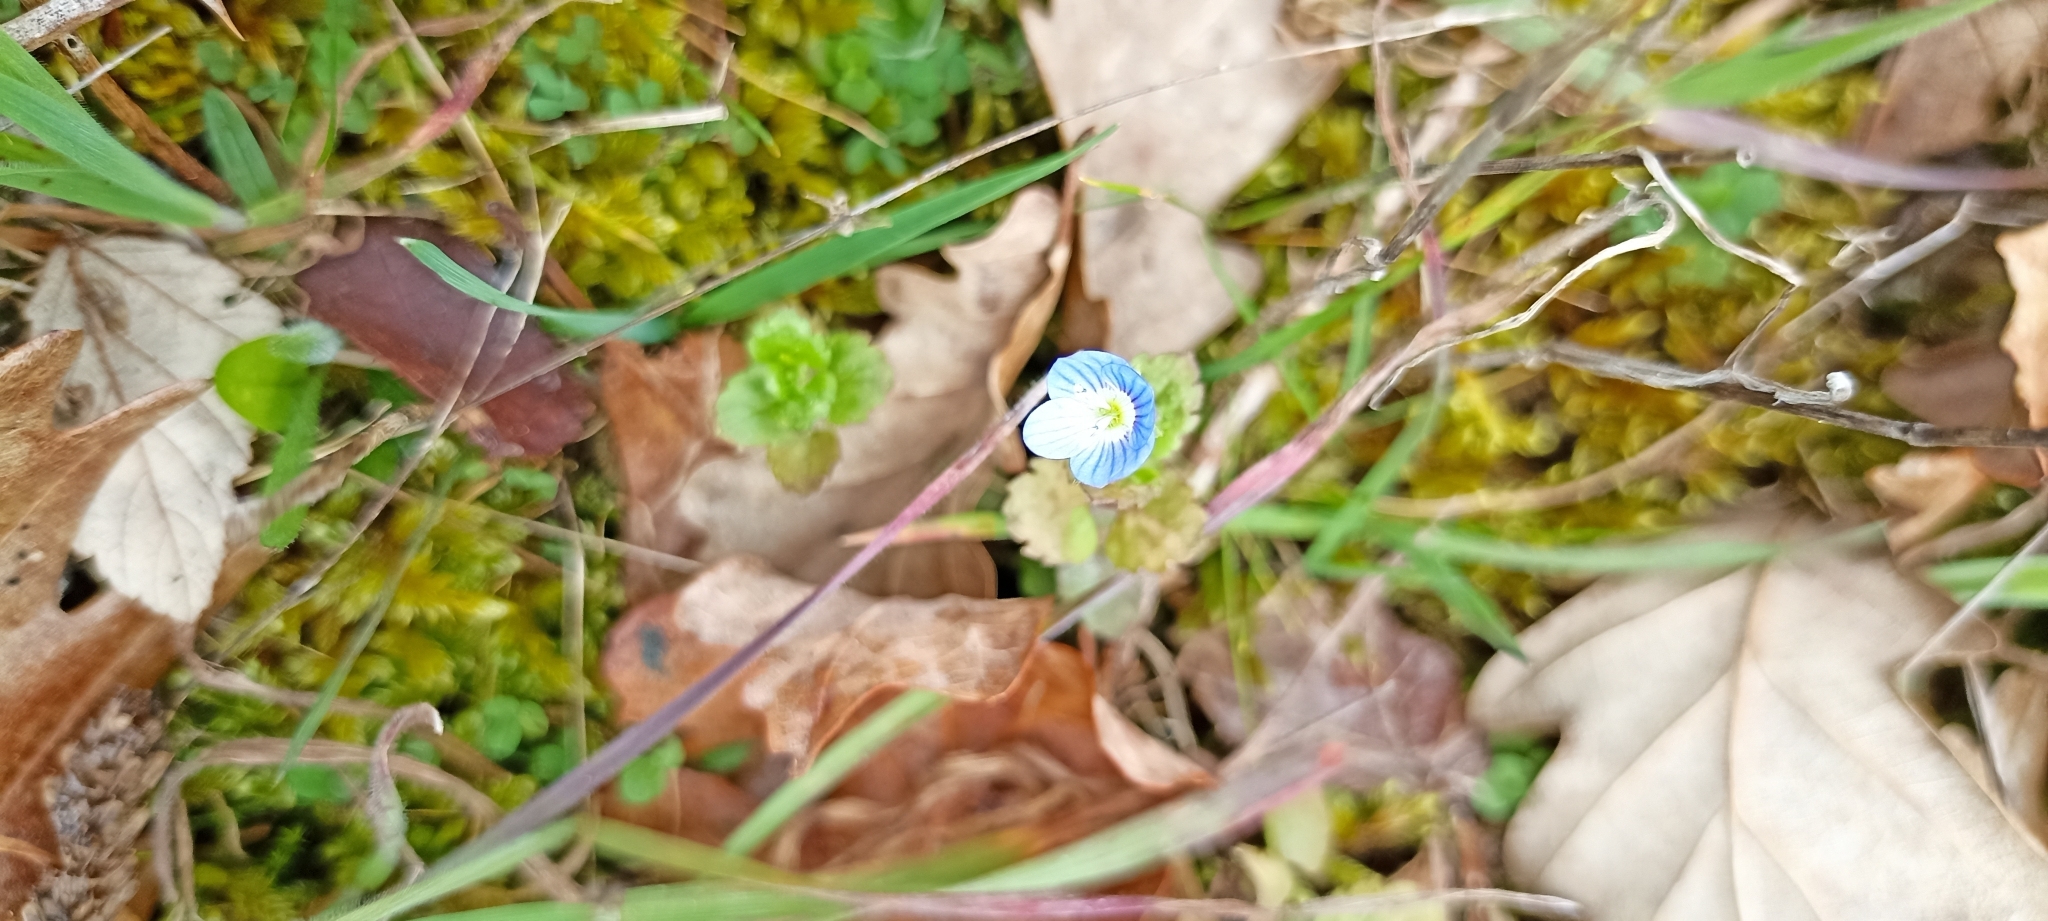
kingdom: Plantae
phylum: Tracheophyta
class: Magnoliopsida
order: Lamiales
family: Plantaginaceae
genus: Veronica
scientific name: Veronica persica
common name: Common field-speedwell
